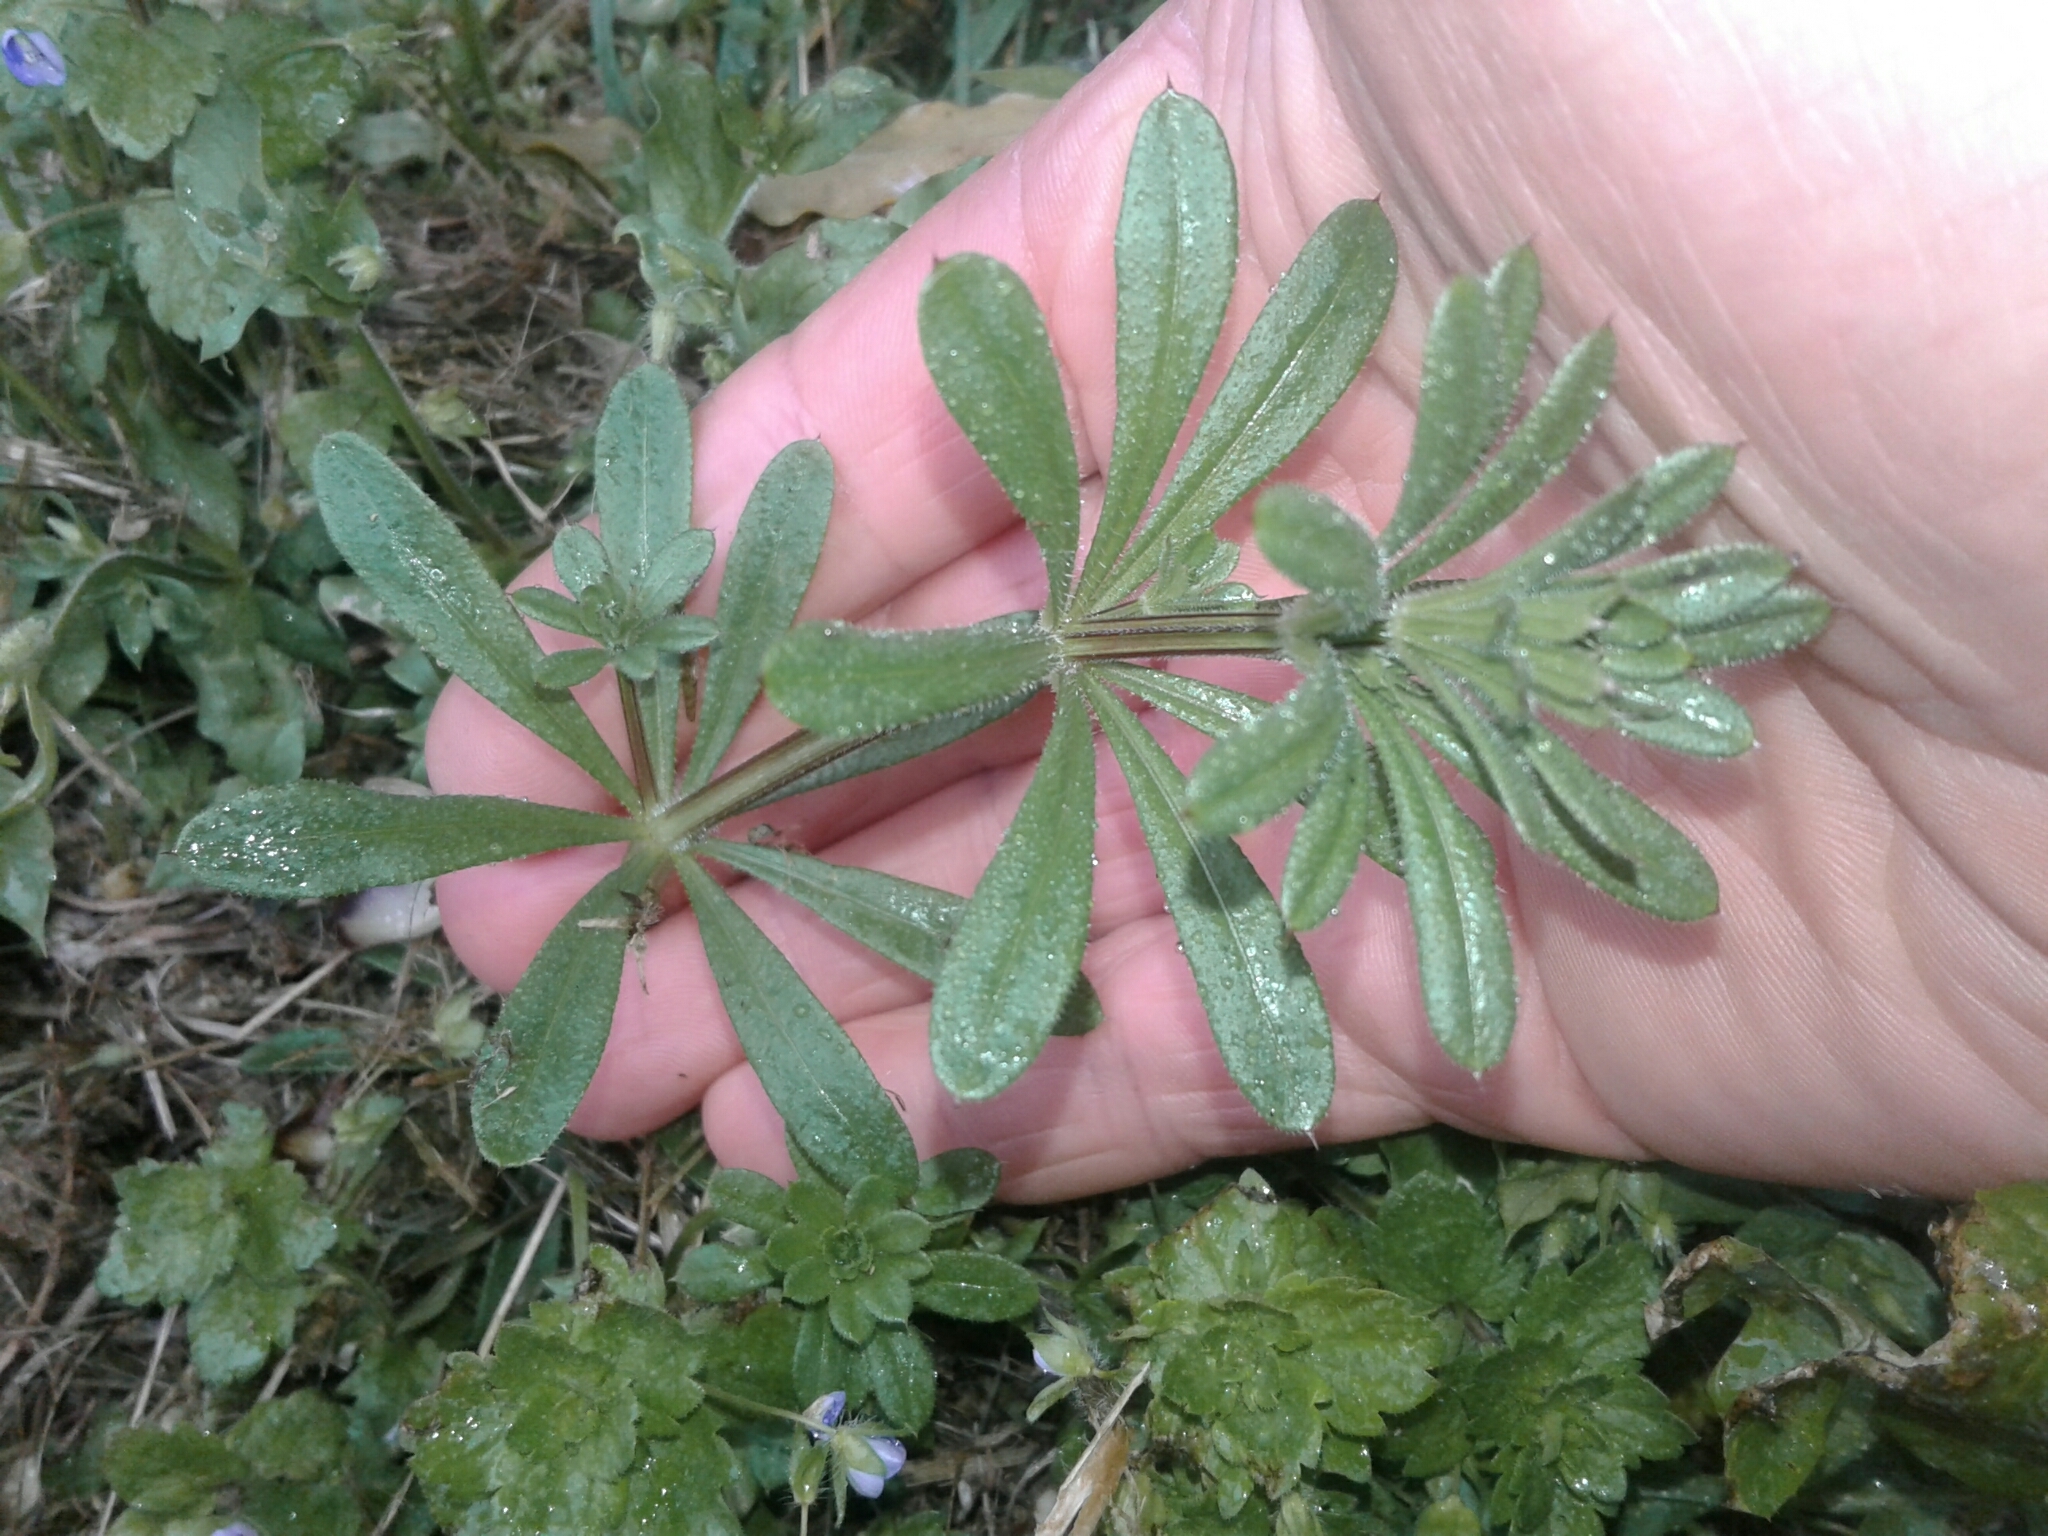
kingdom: Plantae
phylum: Tracheophyta
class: Magnoliopsida
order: Gentianales
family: Rubiaceae
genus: Galium
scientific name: Galium aparine
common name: Cleavers
